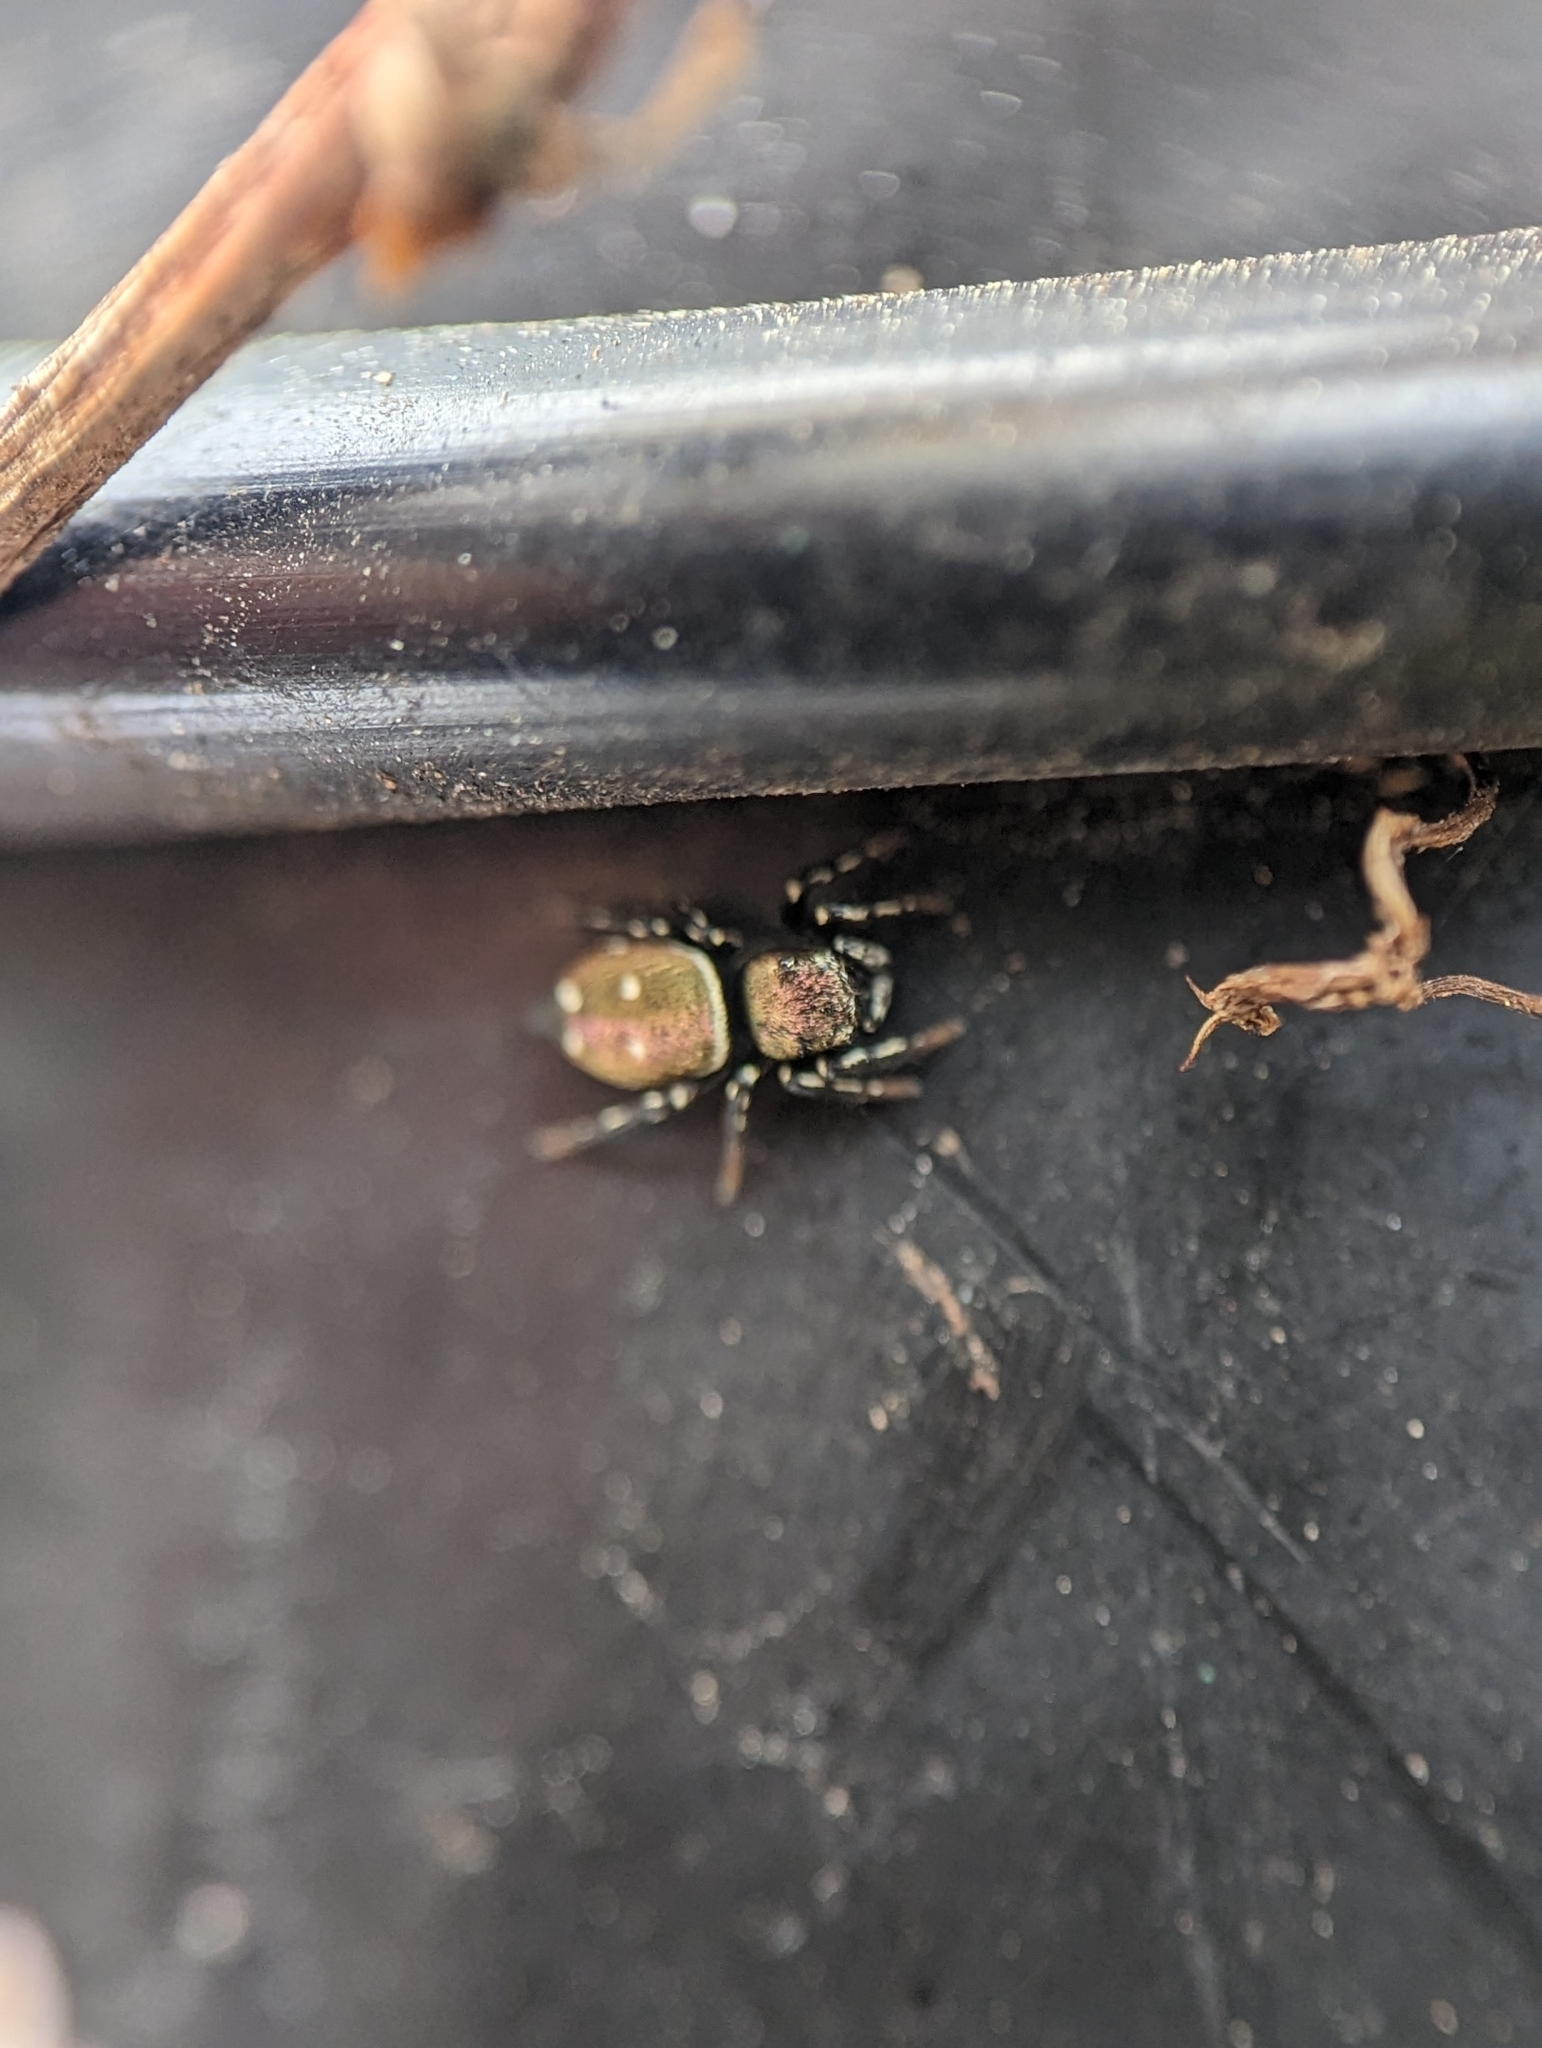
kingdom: Animalia
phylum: Arthropoda
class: Arachnida
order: Araneae
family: Salticidae
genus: Heliophanus
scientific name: Heliophanus kochii
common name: Sun jumping spider
